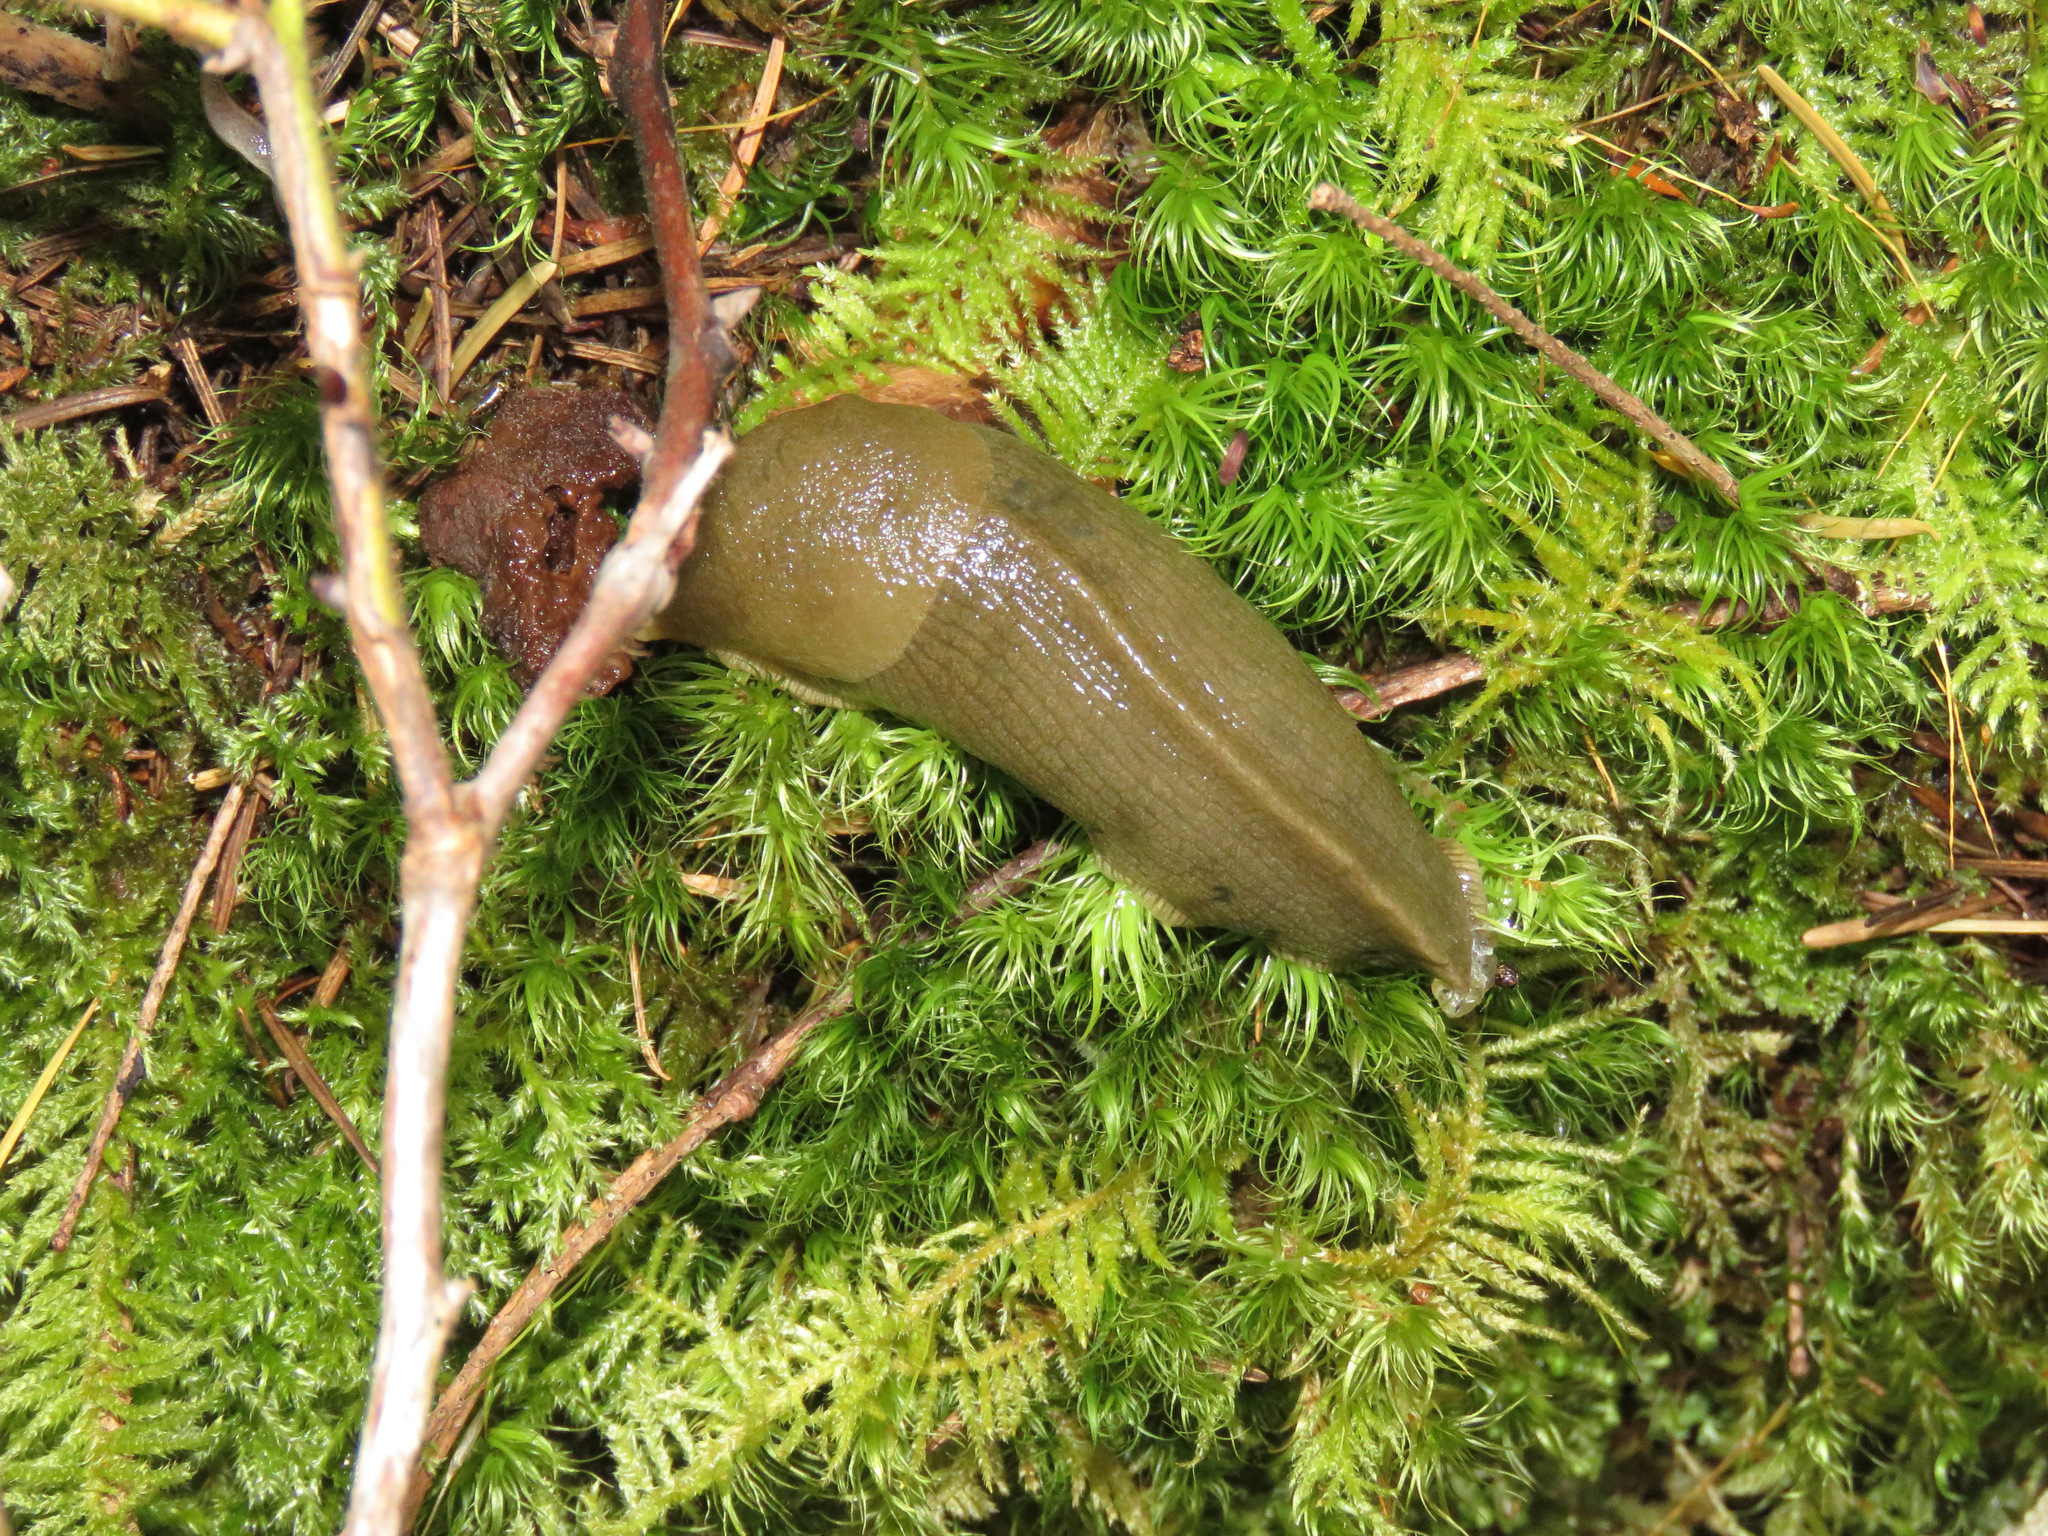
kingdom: Animalia
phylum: Mollusca
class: Gastropoda
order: Stylommatophora
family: Ariolimacidae
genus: Ariolimax
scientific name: Ariolimax columbianus
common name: Pacific banana slug
